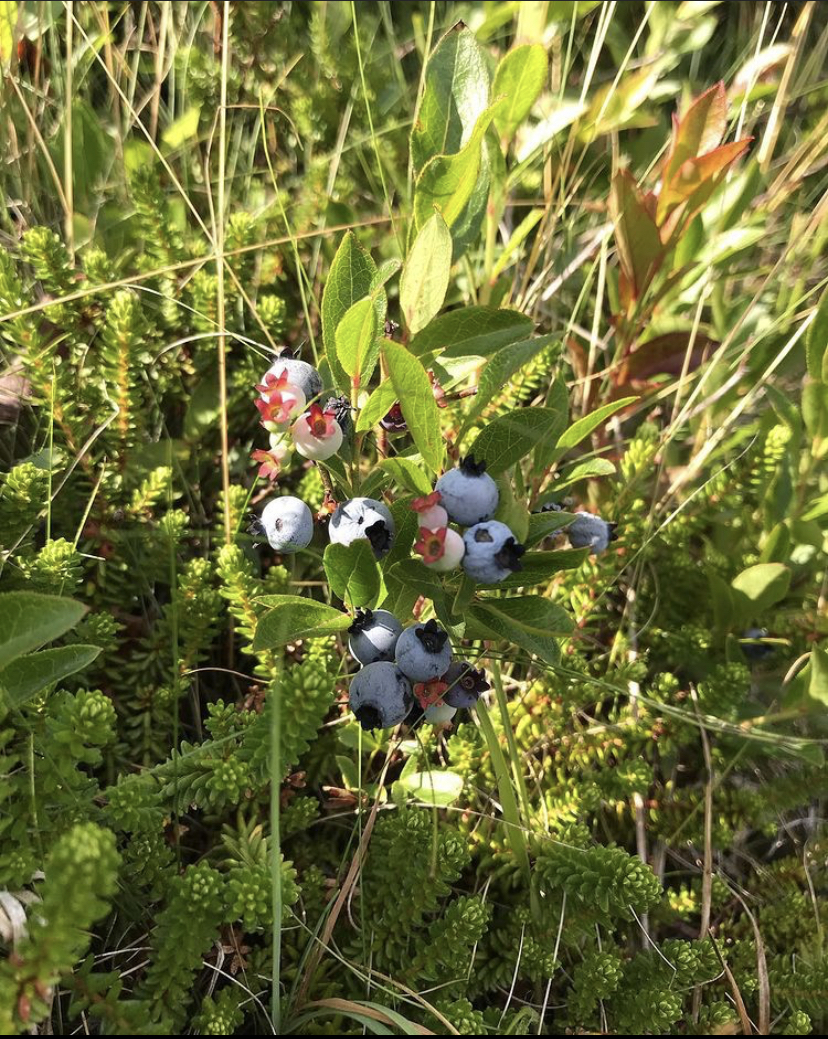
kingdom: Plantae
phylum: Tracheophyta
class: Magnoliopsida
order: Ericales
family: Ericaceae
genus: Vaccinium
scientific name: Vaccinium angustifolium
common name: Early lowbush blueberry
